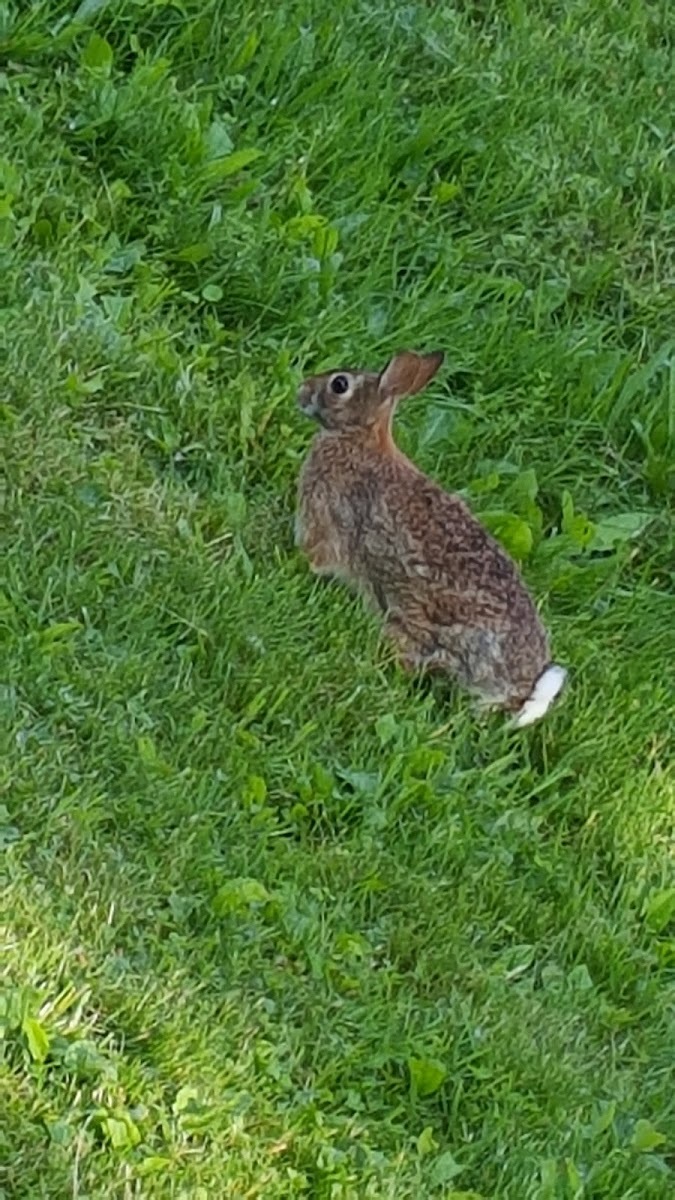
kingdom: Animalia
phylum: Chordata
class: Mammalia
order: Lagomorpha
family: Leporidae
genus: Sylvilagus
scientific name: Sylvilagus floridanus
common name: Eastern cottontail
